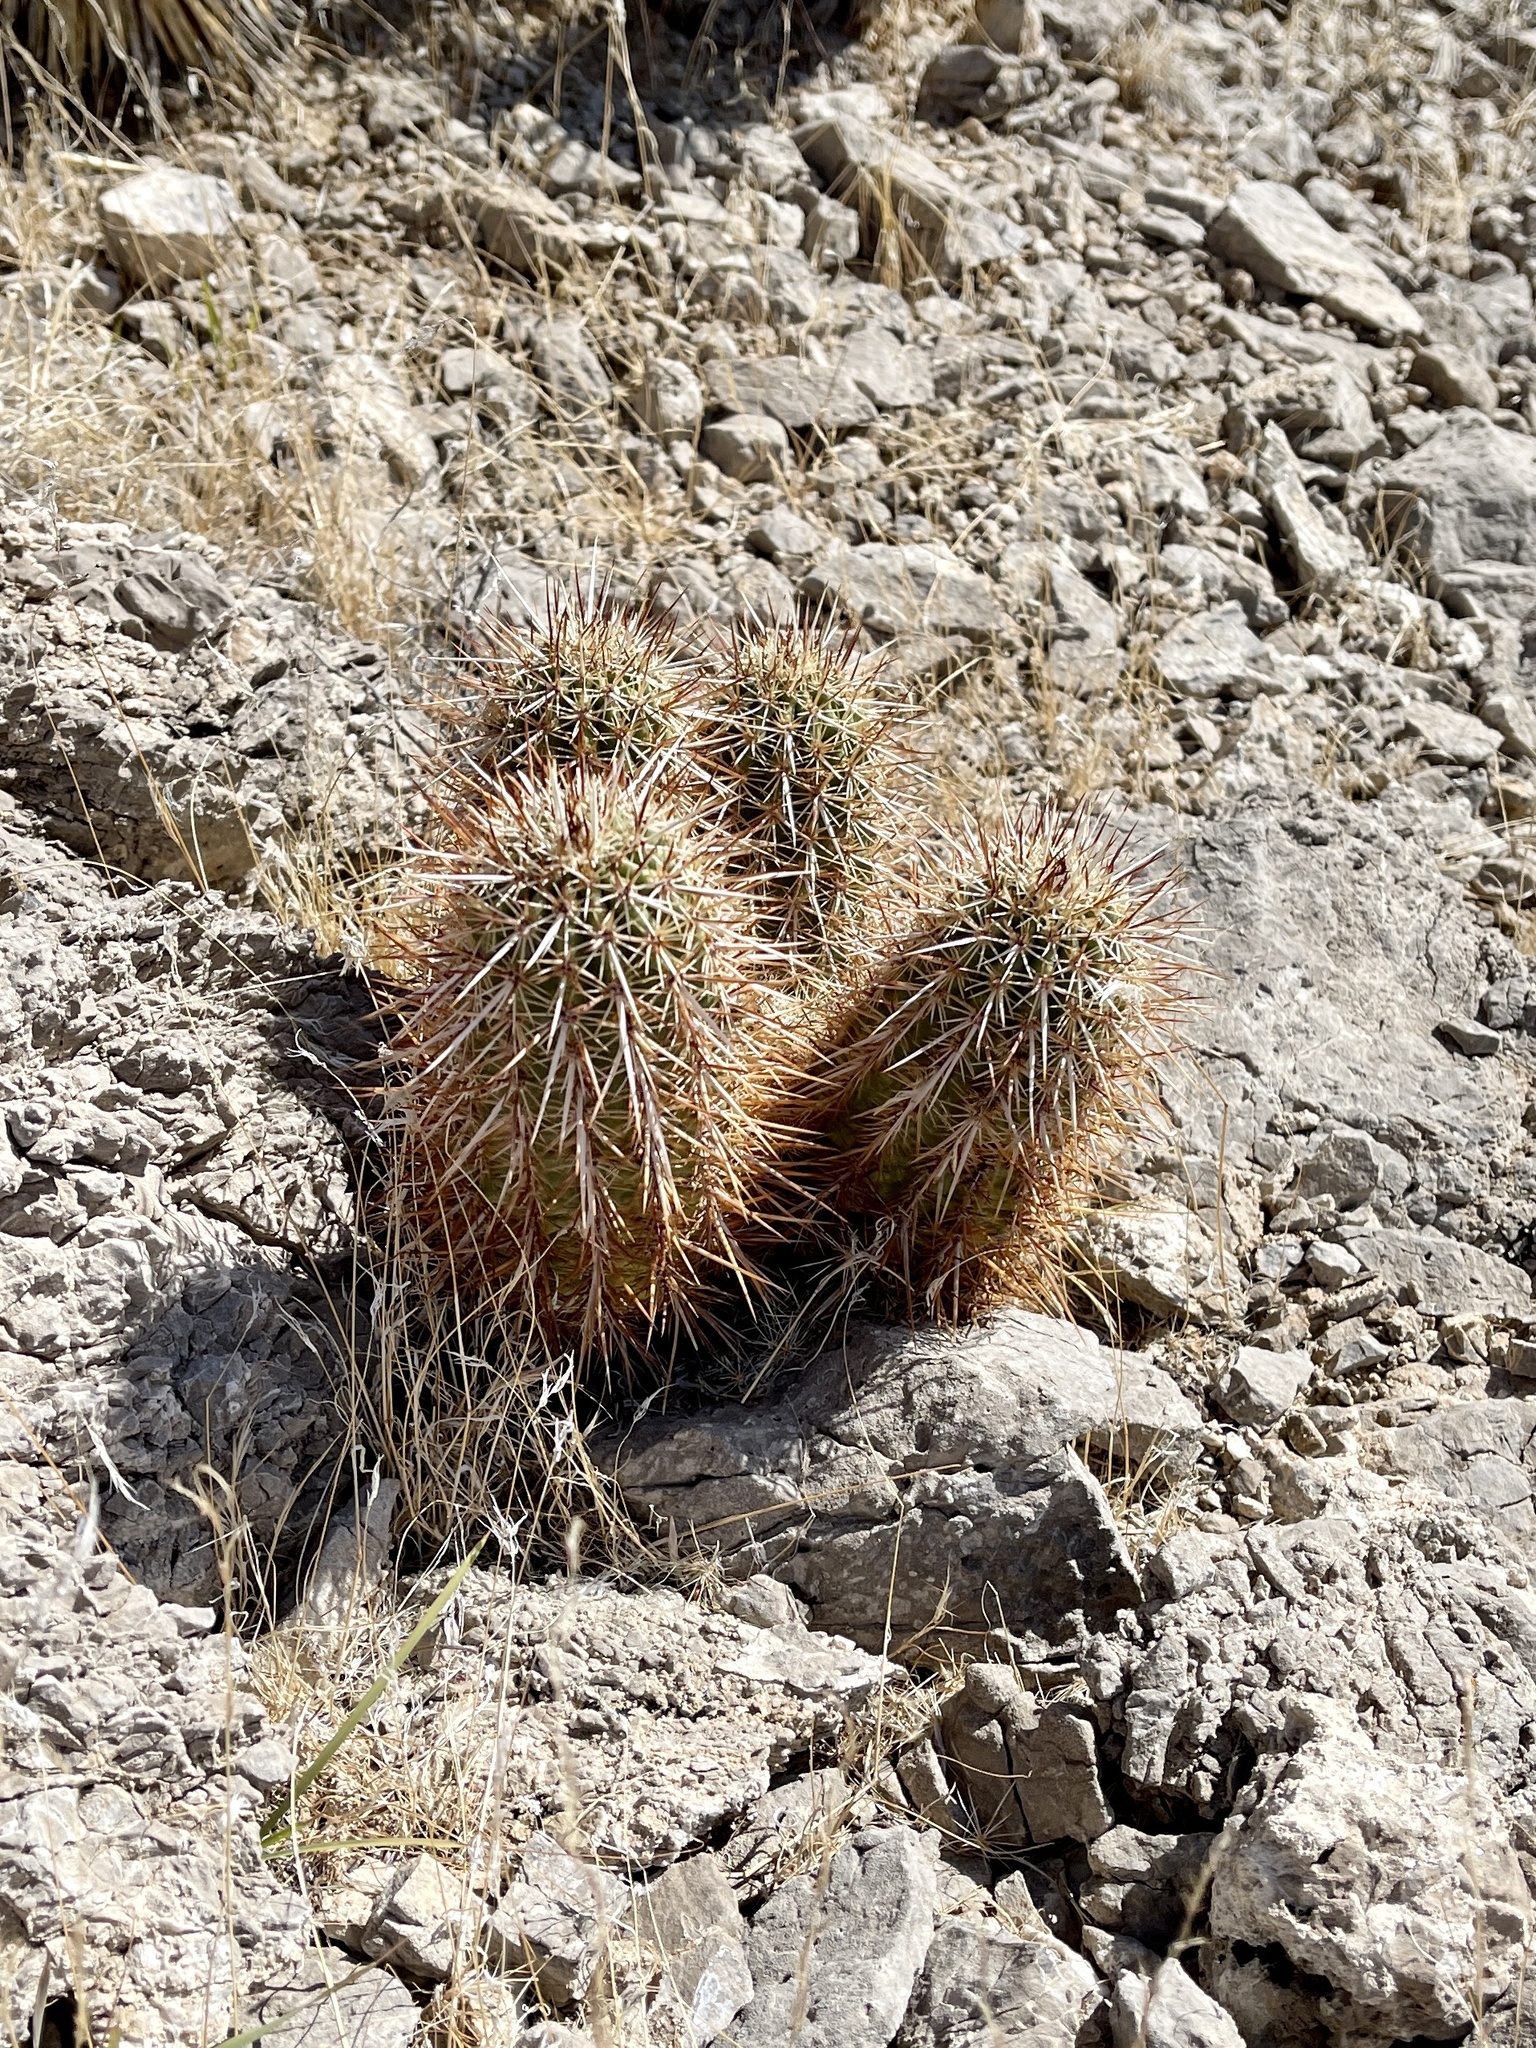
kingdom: Plantae
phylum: Tracheophyta
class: Magnoliopsida
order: Caryophyllales
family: Cactaceae
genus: Echinocereus
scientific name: Echinocereus engelmannii
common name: Engelmann's hedgehog cactus
